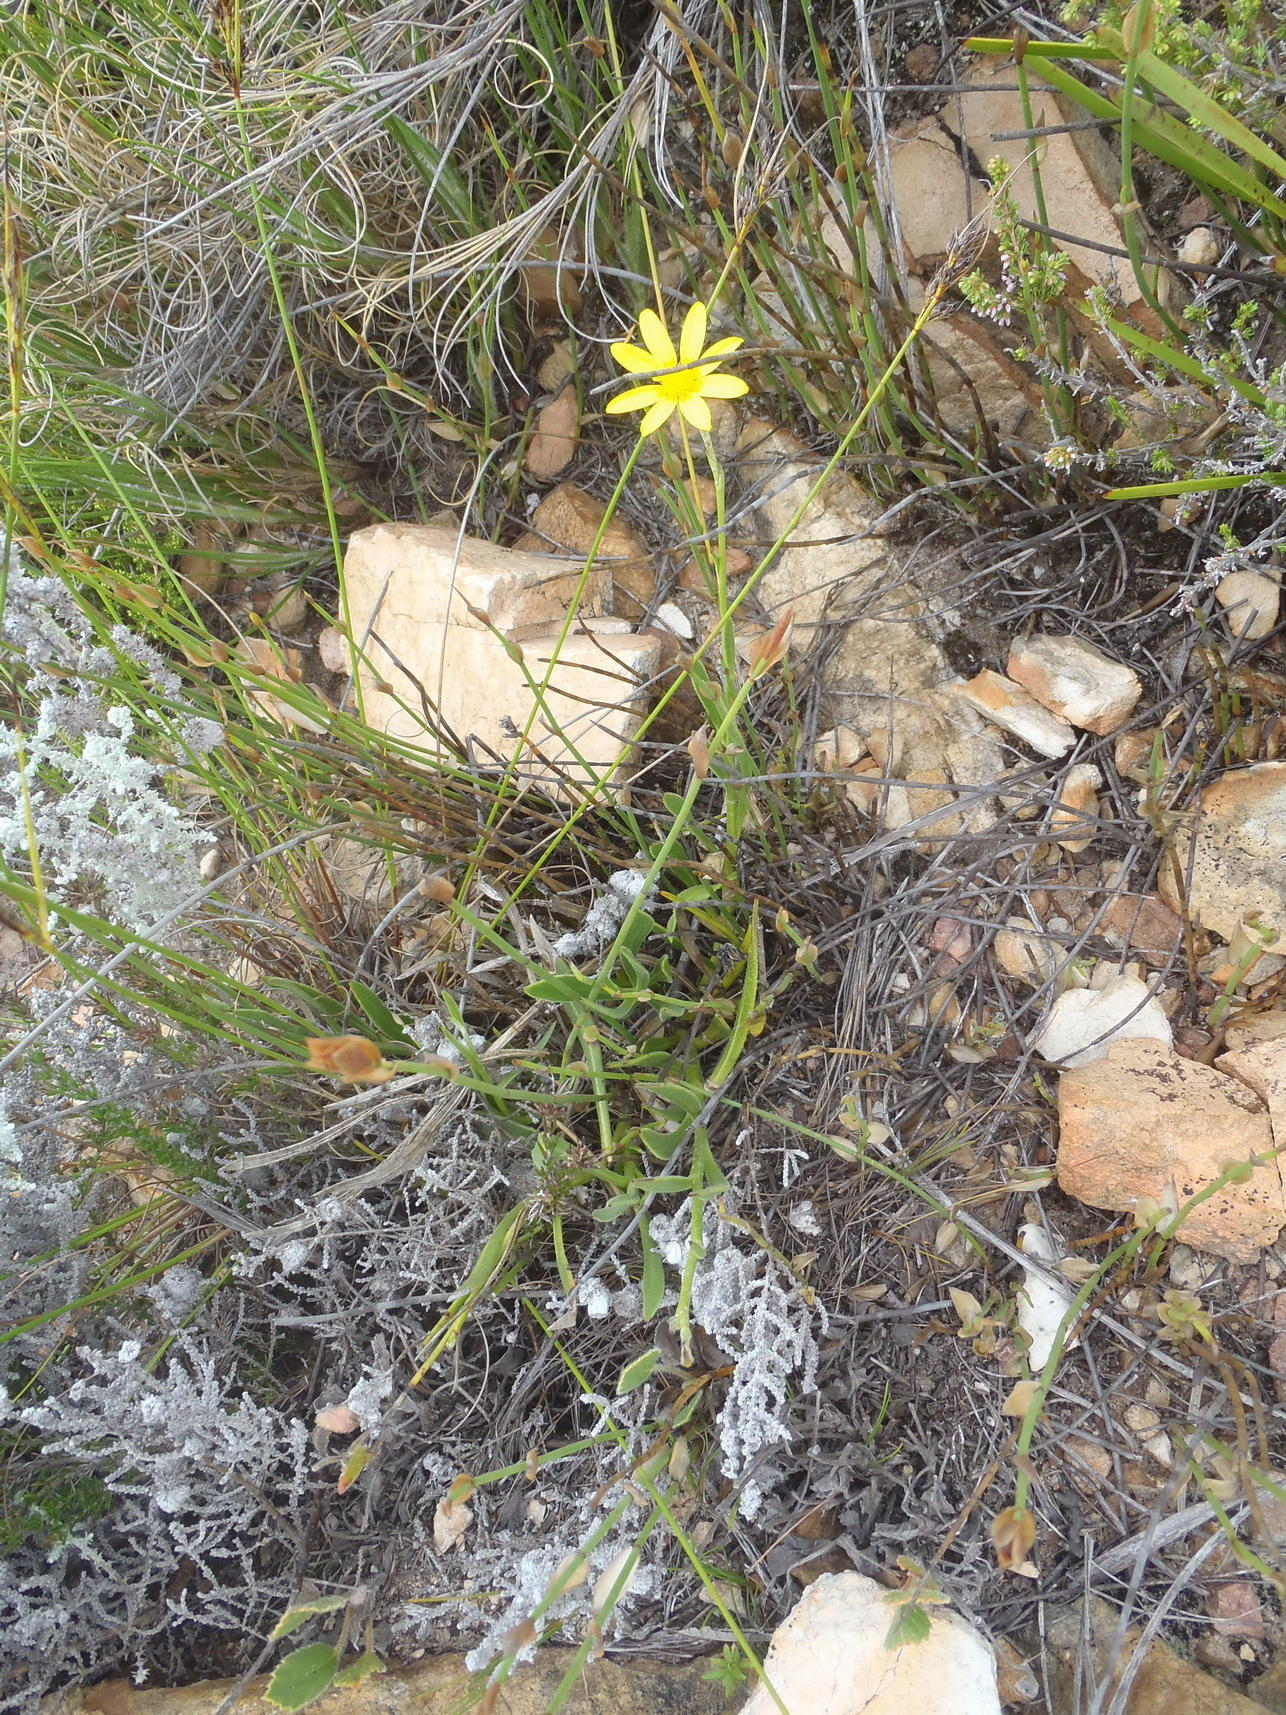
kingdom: Plantae
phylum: Tracheophyta
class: Magnoliopsida
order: Asterales
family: Asteraceae
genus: Osteospermum
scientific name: Osteospermum asperulum
